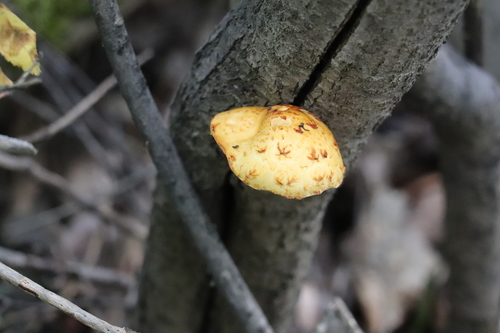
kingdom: Fungi
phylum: Basidiomycota
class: Agaricomycetes
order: Agaricales
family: Strophariaceae
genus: Pholiota
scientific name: Pholiota
